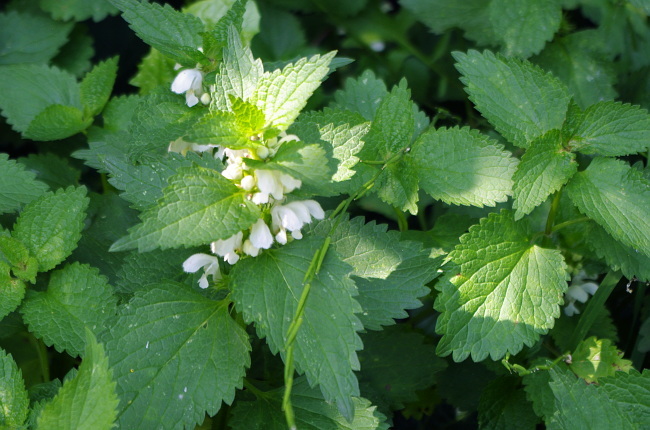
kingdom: Plantae
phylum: Tracheophyta
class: Magnoliopsida
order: Lamiales
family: Lamiaceae
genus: Lamium
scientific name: Lamium album
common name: White dead-nettle
